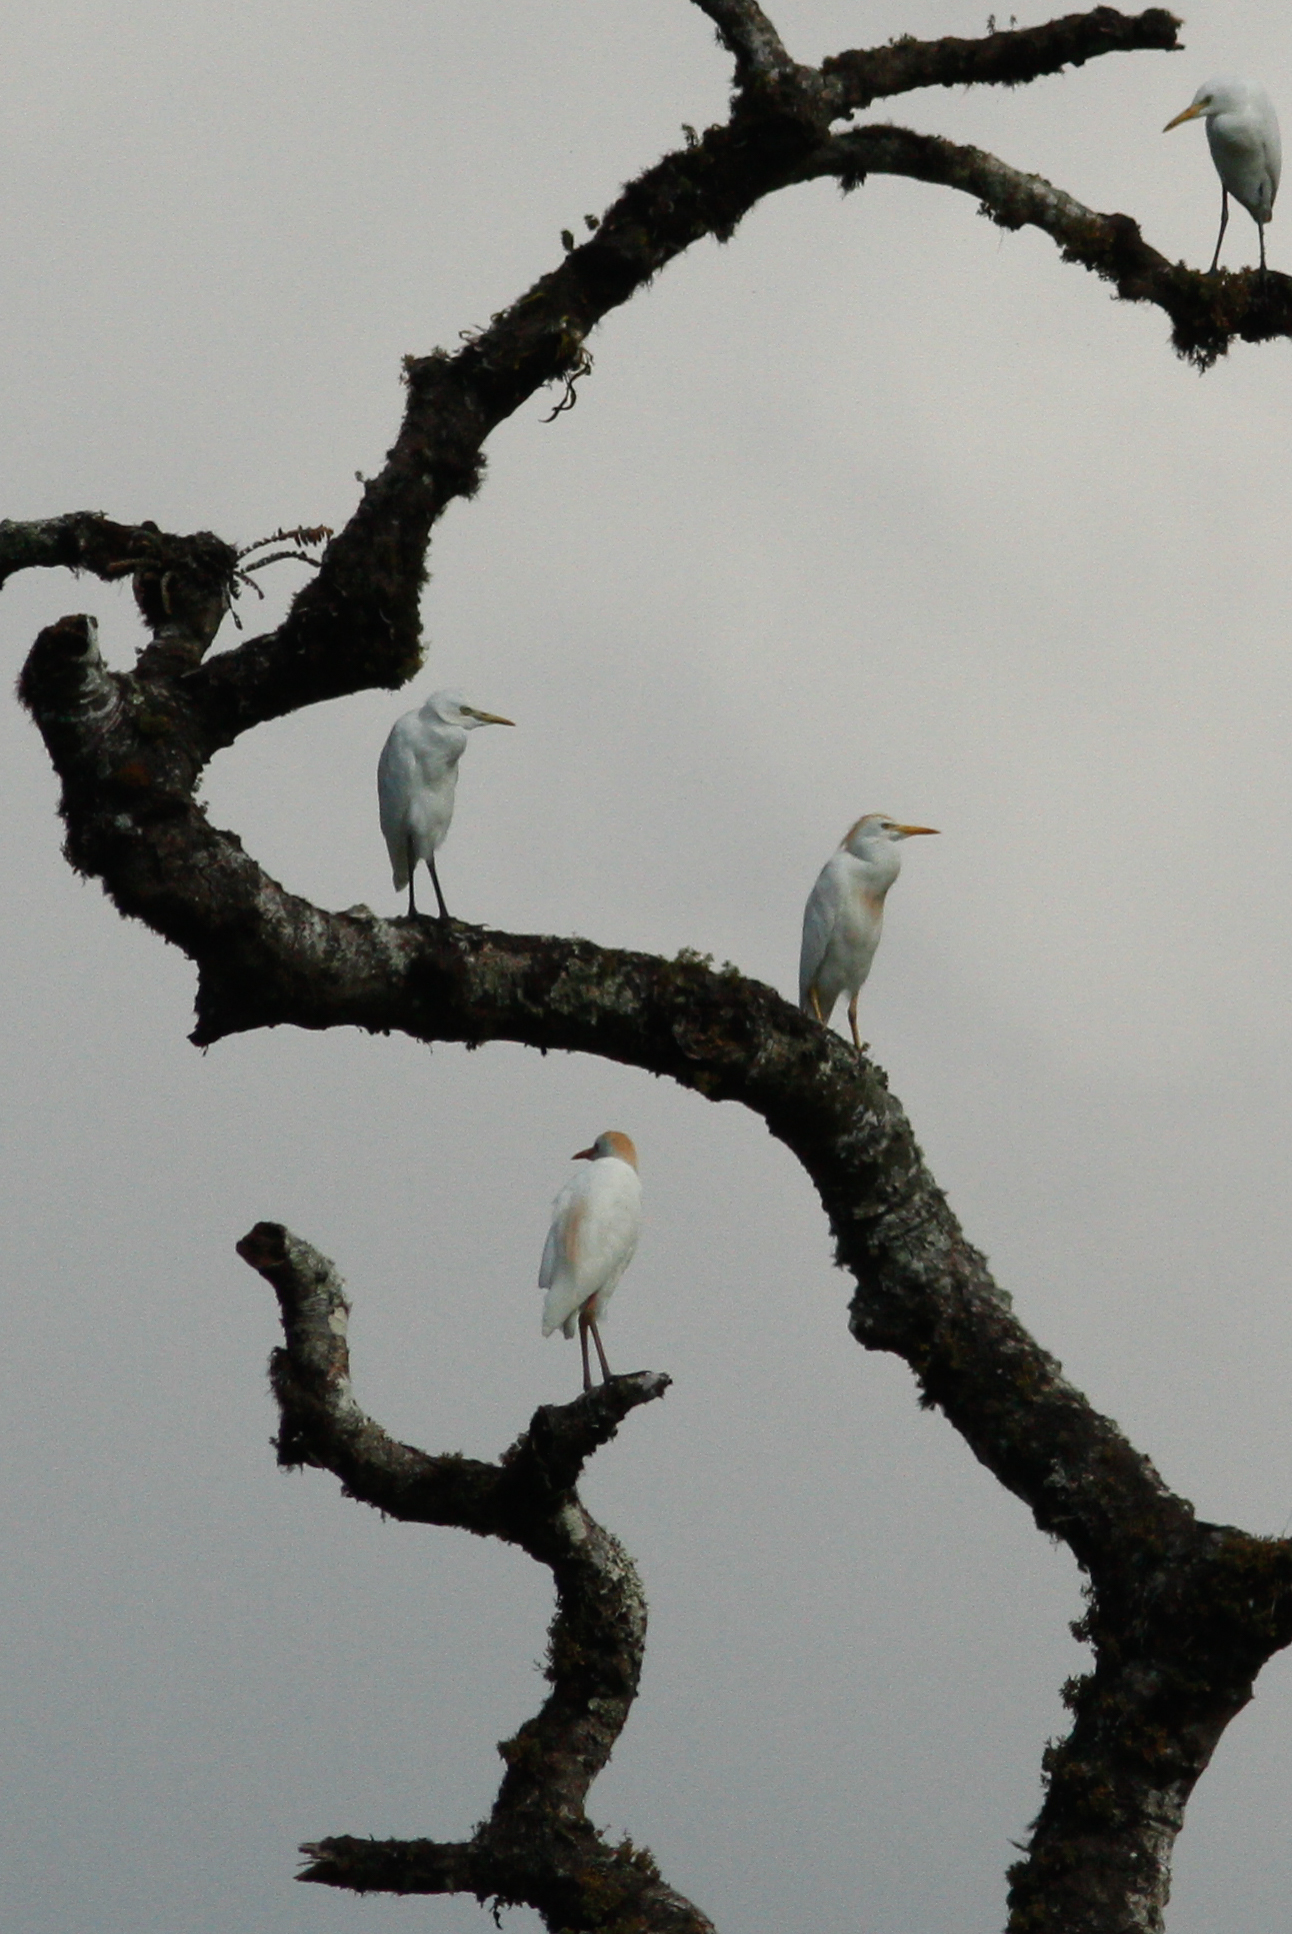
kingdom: Animalia
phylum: Chordata
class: Aves
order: Pelecaniformes
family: Ardeidae
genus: Bubulcus
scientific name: Bubulcus ibis
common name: Cattle egret
